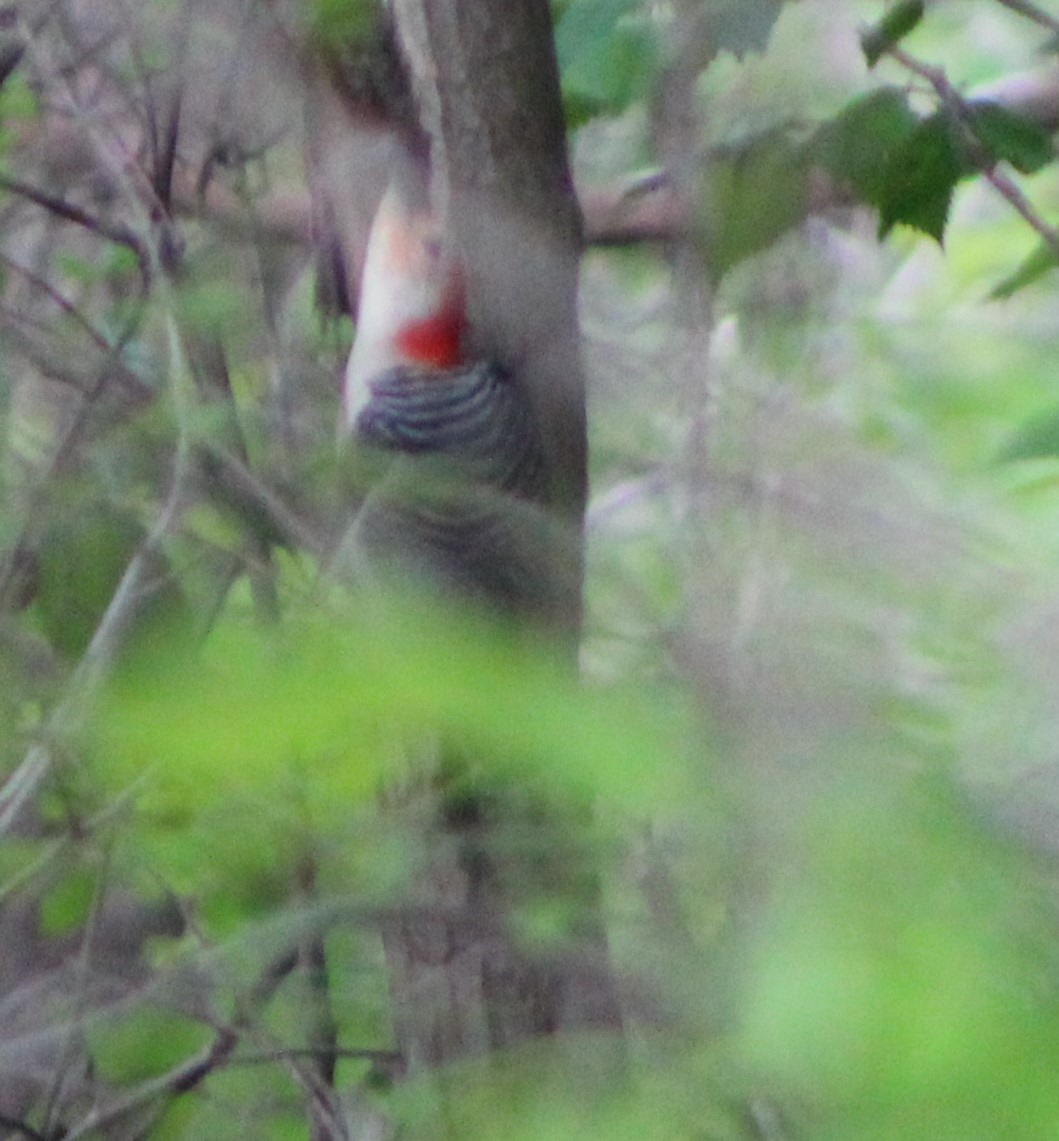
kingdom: Animalia
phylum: Chordata
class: Aves
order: Piciformes
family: Picidae
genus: Melanerpes
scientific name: Melanerpes carolinus
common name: Red-bellied woodpecker
